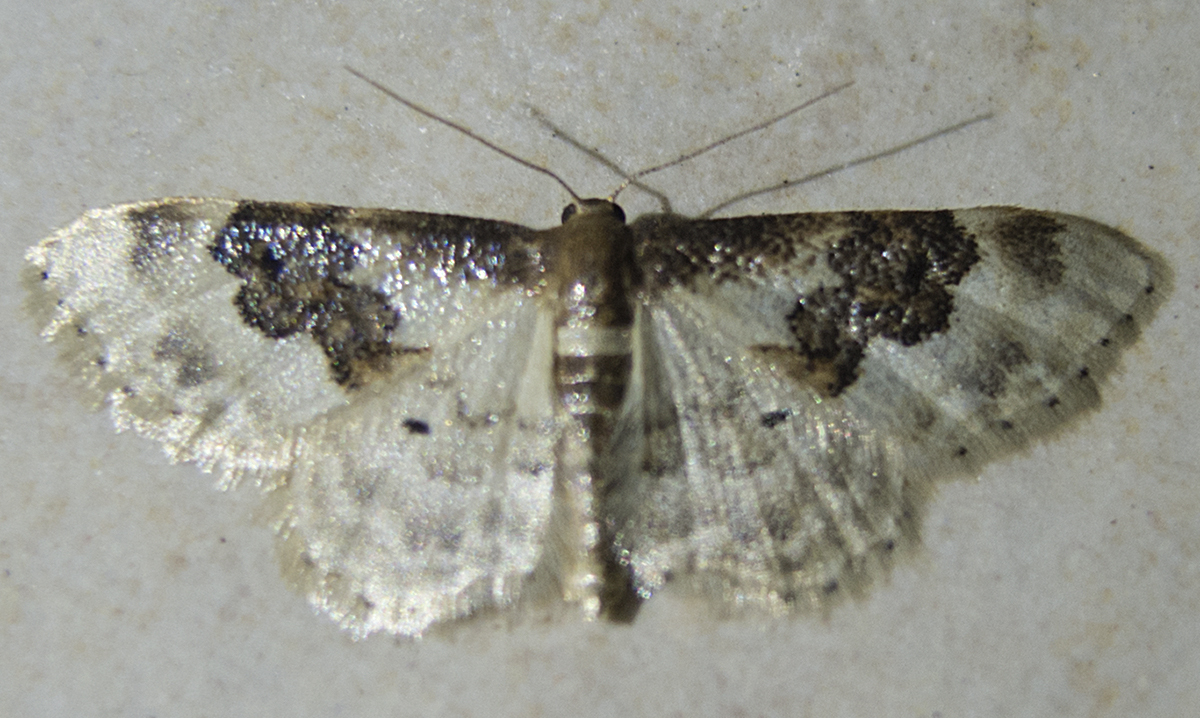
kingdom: Animalia
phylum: Arthropoda
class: Insecta
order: Lepidoptera
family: Geometridae
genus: Idaea
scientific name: Idaea rusticata
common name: Least carpet
